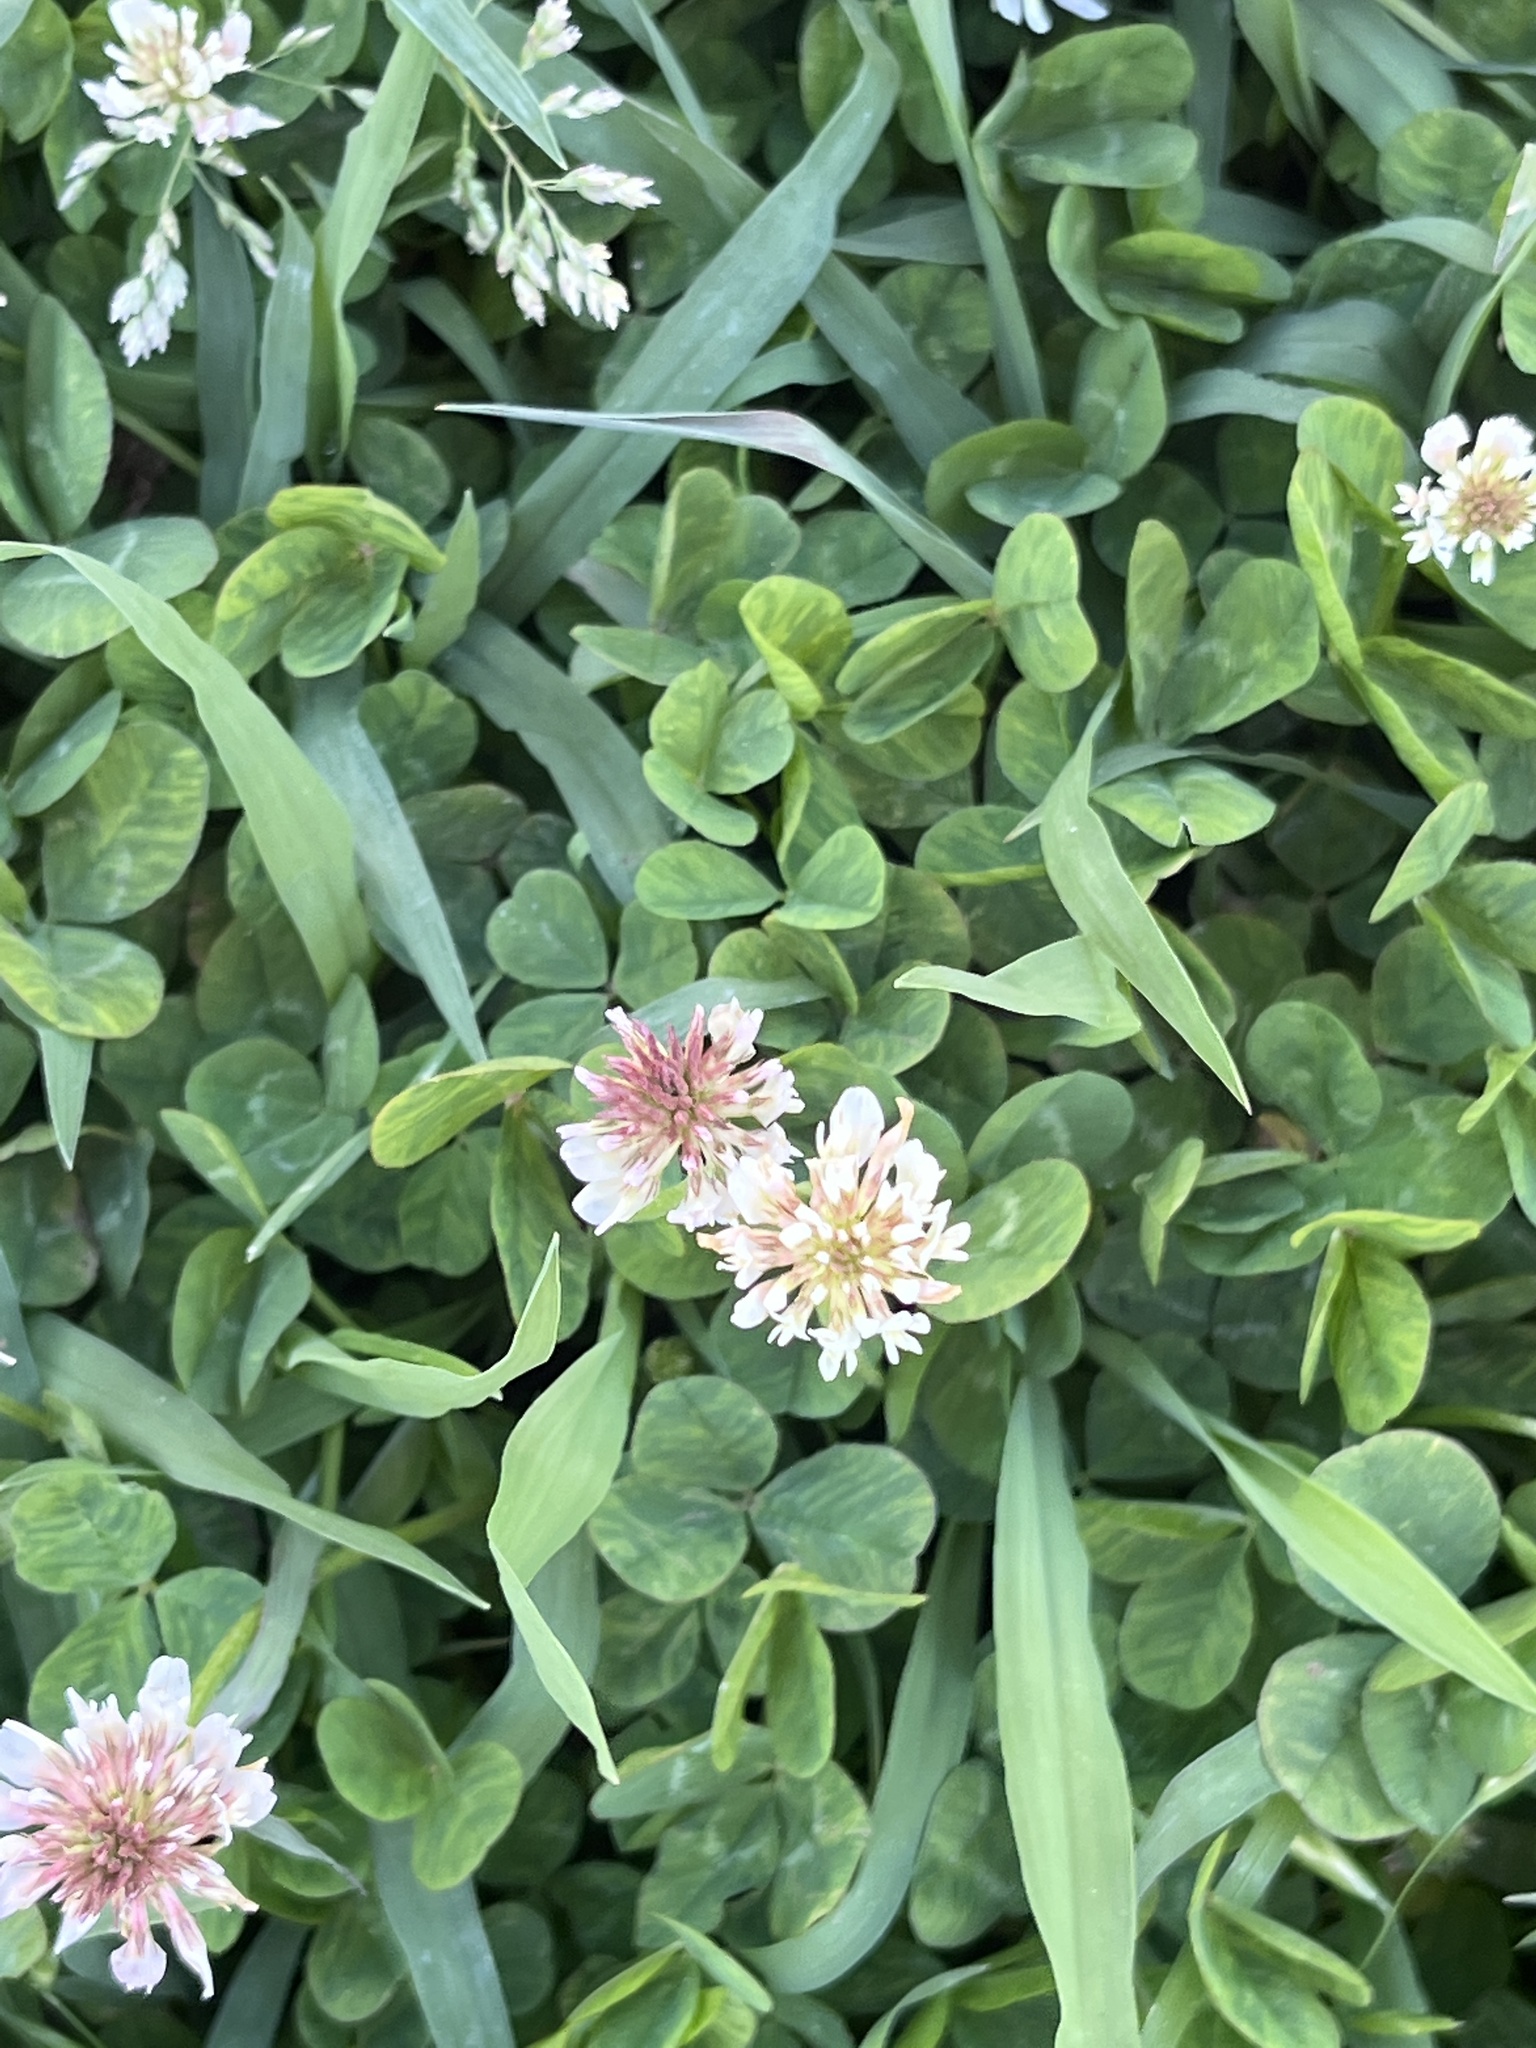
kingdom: Plantae
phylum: Tracheophyta
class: Magnoliopsida
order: Fabales
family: Fabaceae
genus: Trifolium
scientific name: Trifolium repens
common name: White clover
